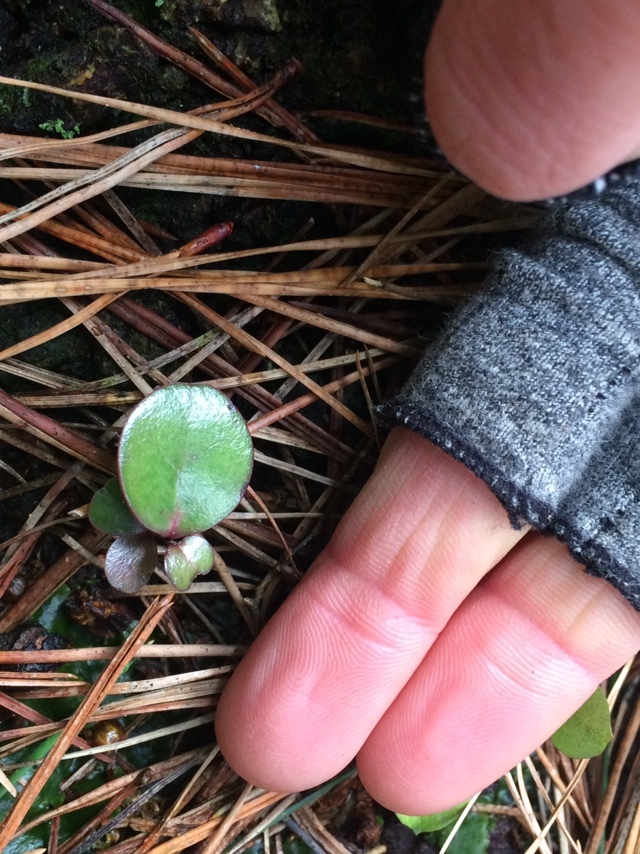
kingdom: Plantae
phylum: Tracheophyta
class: Magnoliopsida
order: Canellales
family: Winteraceae
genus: Pseudowintera
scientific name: Pseudowintera colorata
